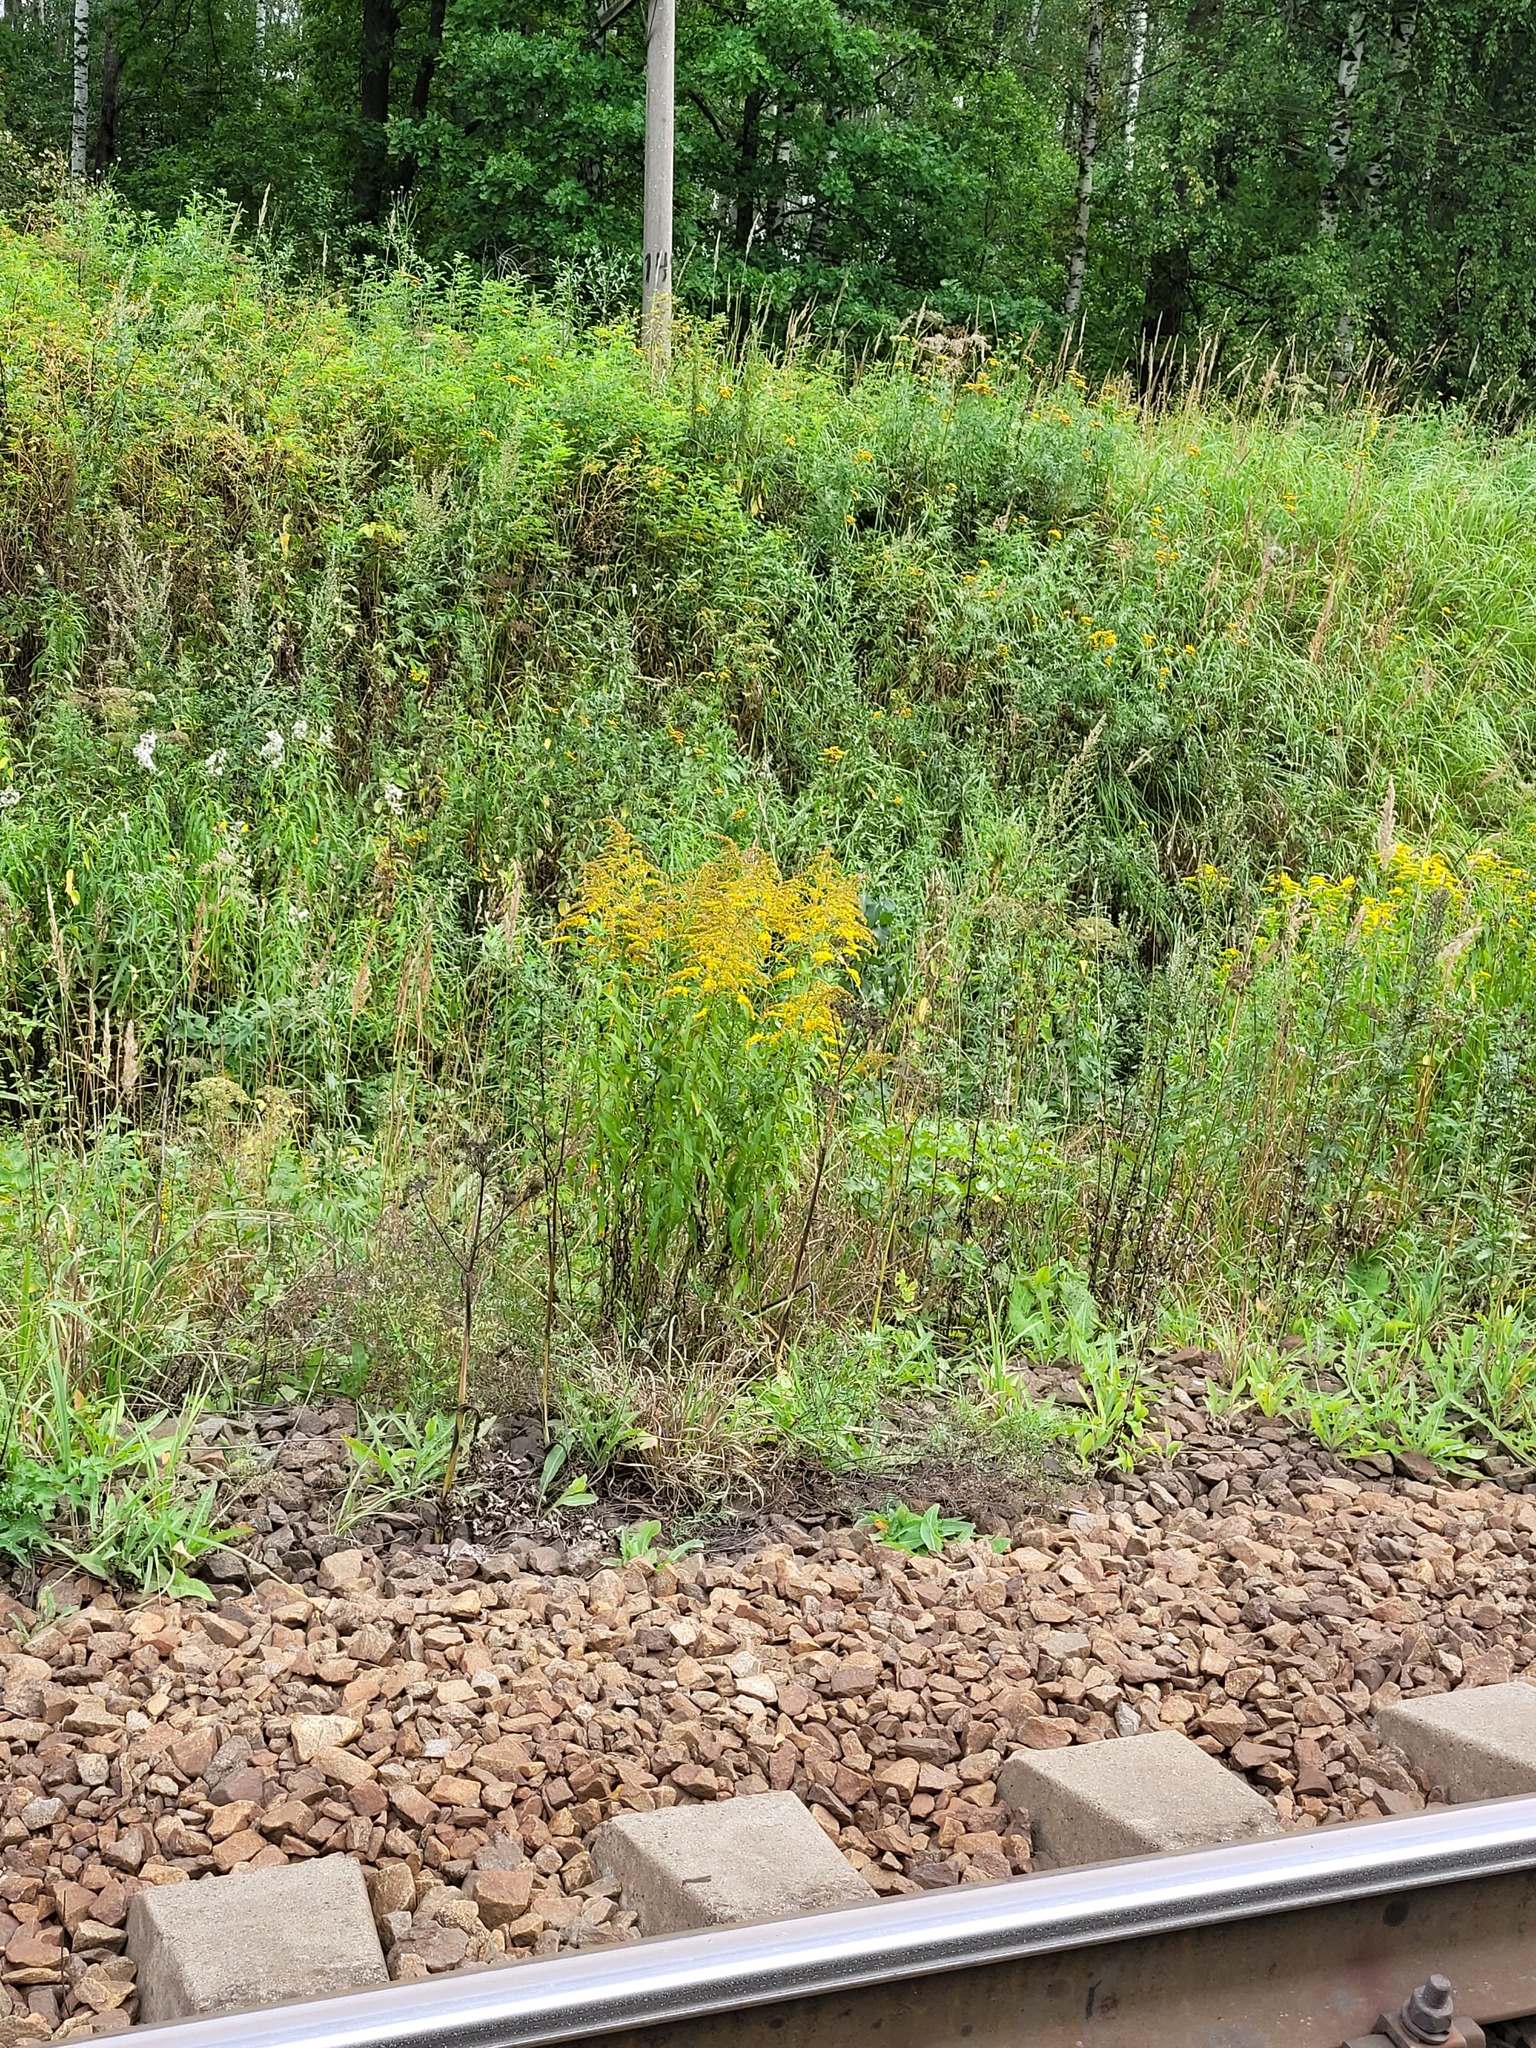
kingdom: Plantae
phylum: Tracheophyta
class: Magnoliopsida
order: Asterales
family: Asteraceae
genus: Solidago
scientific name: Solidago canadensis
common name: Canada goldenrod
